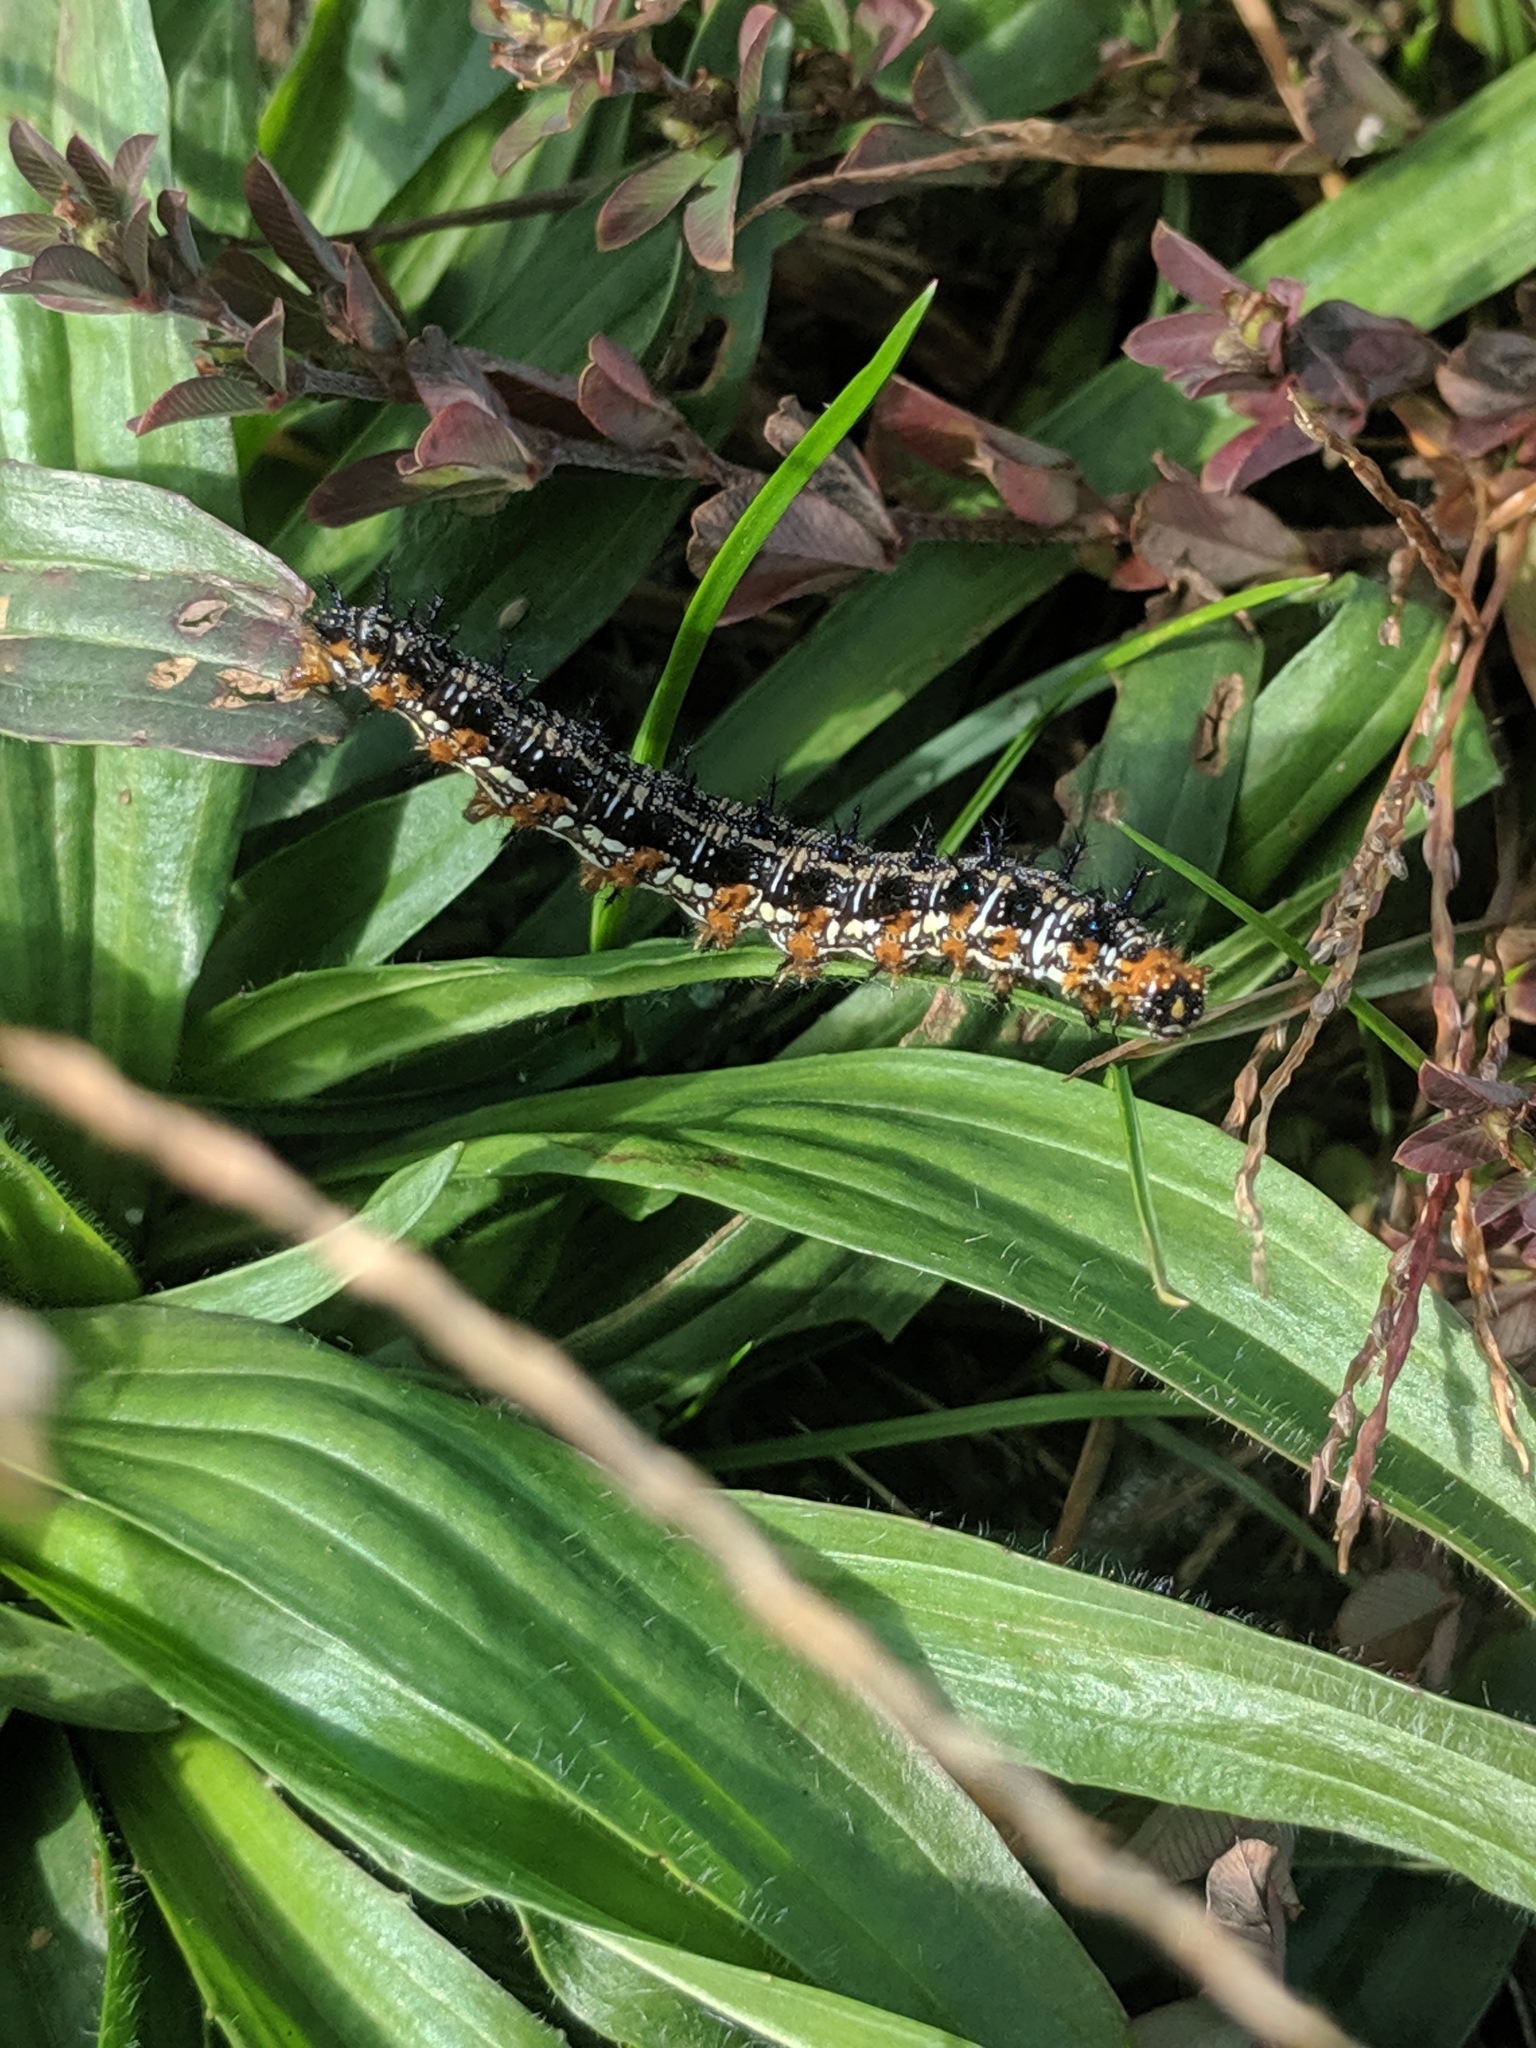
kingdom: Animalia
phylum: Arthropoda
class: Insecta
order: Lepidoptera
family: Nymphalidae
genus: Junonia
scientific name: Junonia coenia
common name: Common buckeye
